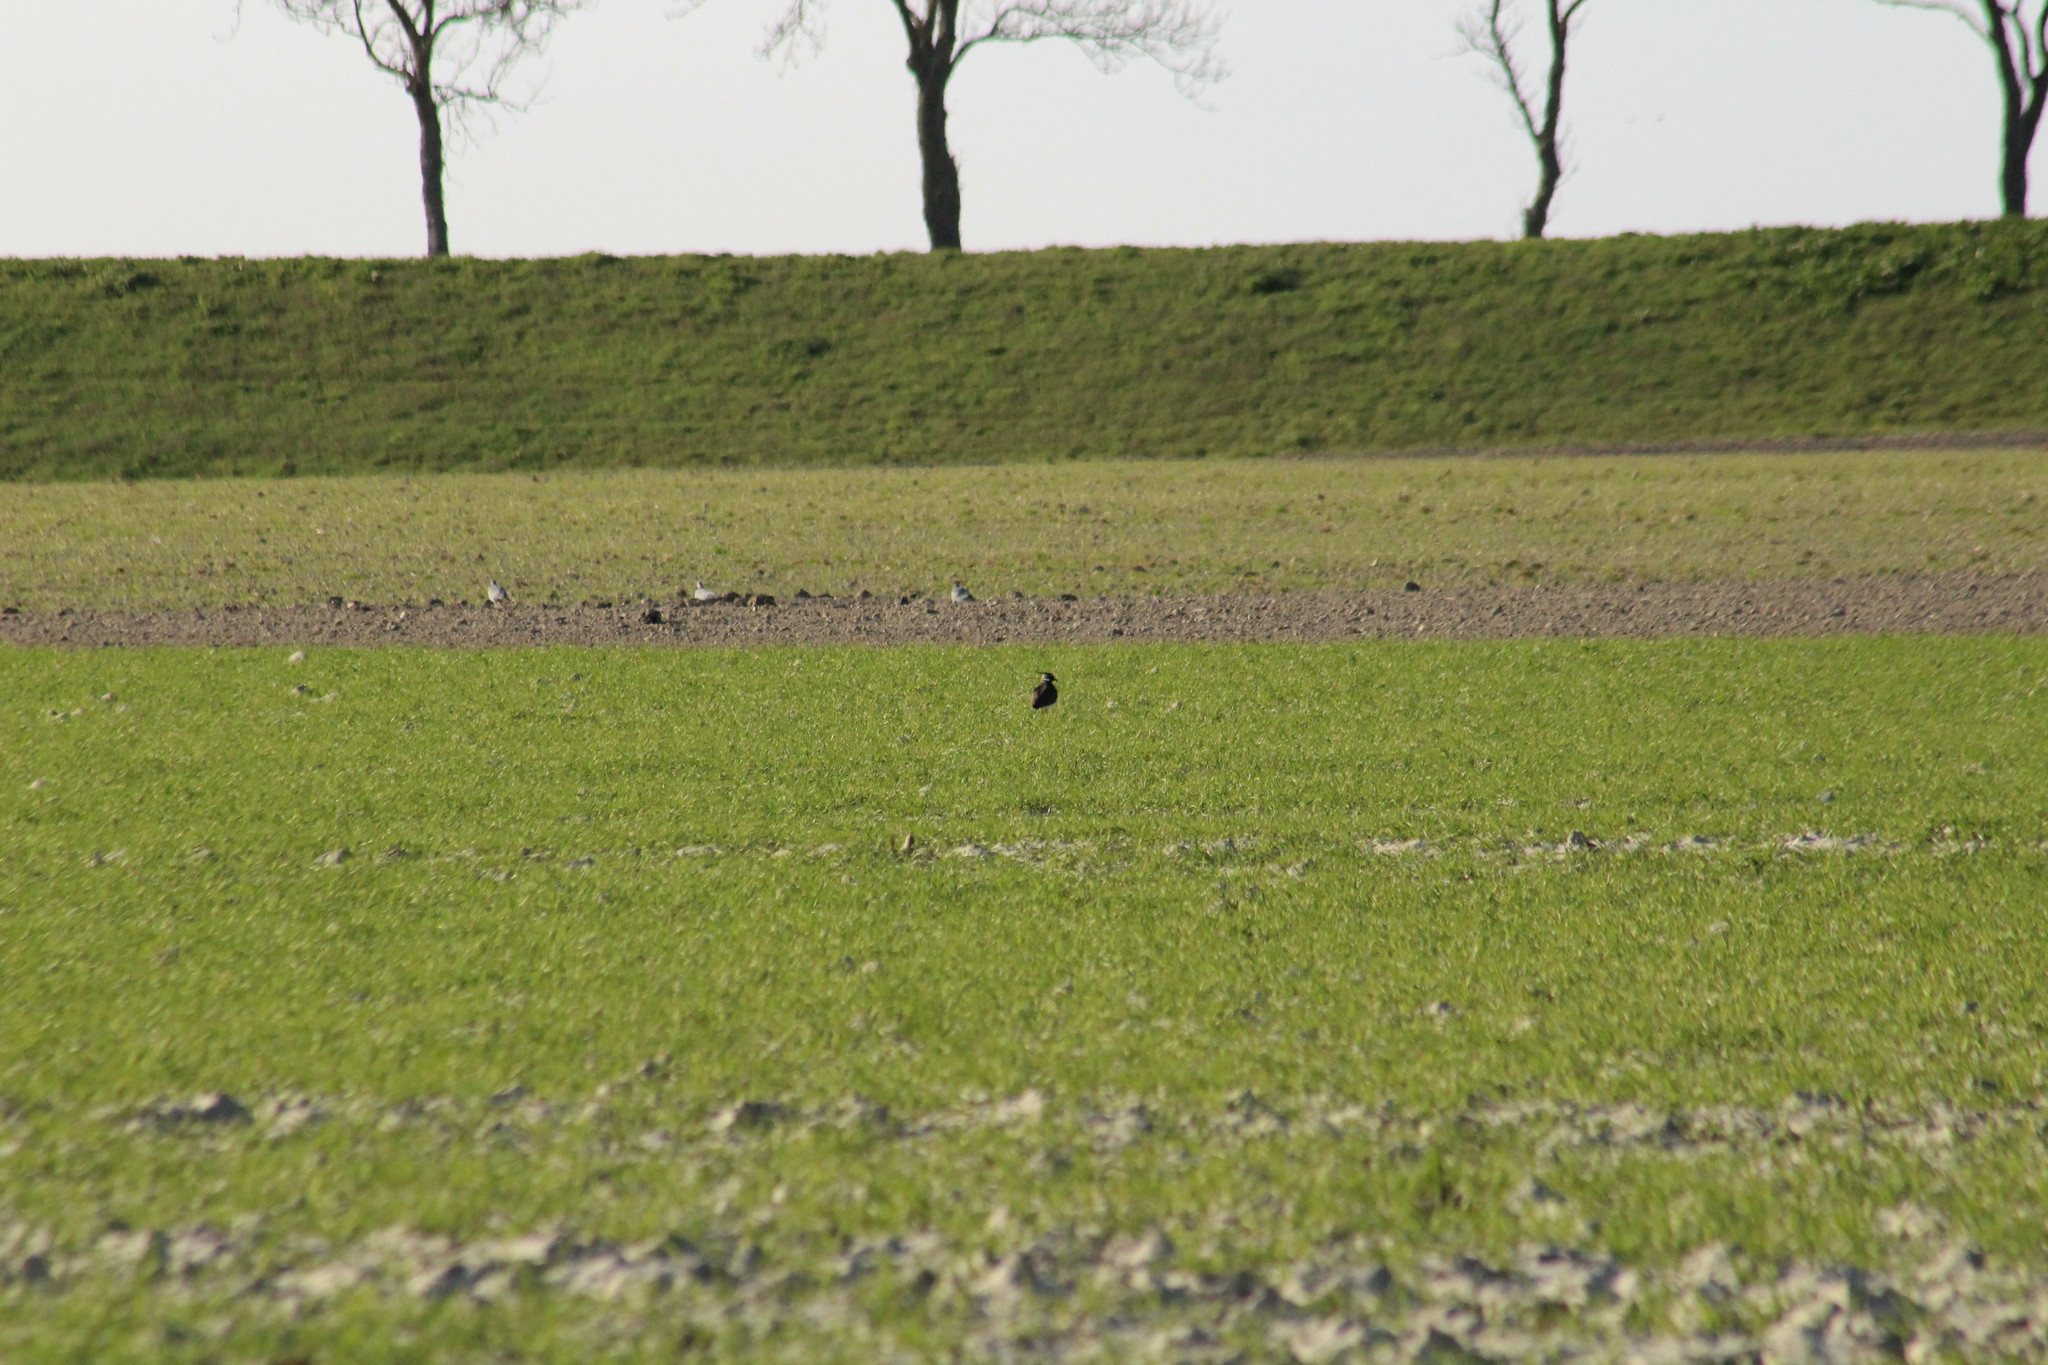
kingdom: Animalia
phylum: Chordata
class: Aves
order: Charadriiformes
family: Charadriidae
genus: Vanellus
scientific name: Vanellus vanellus
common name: Northern lapwing
